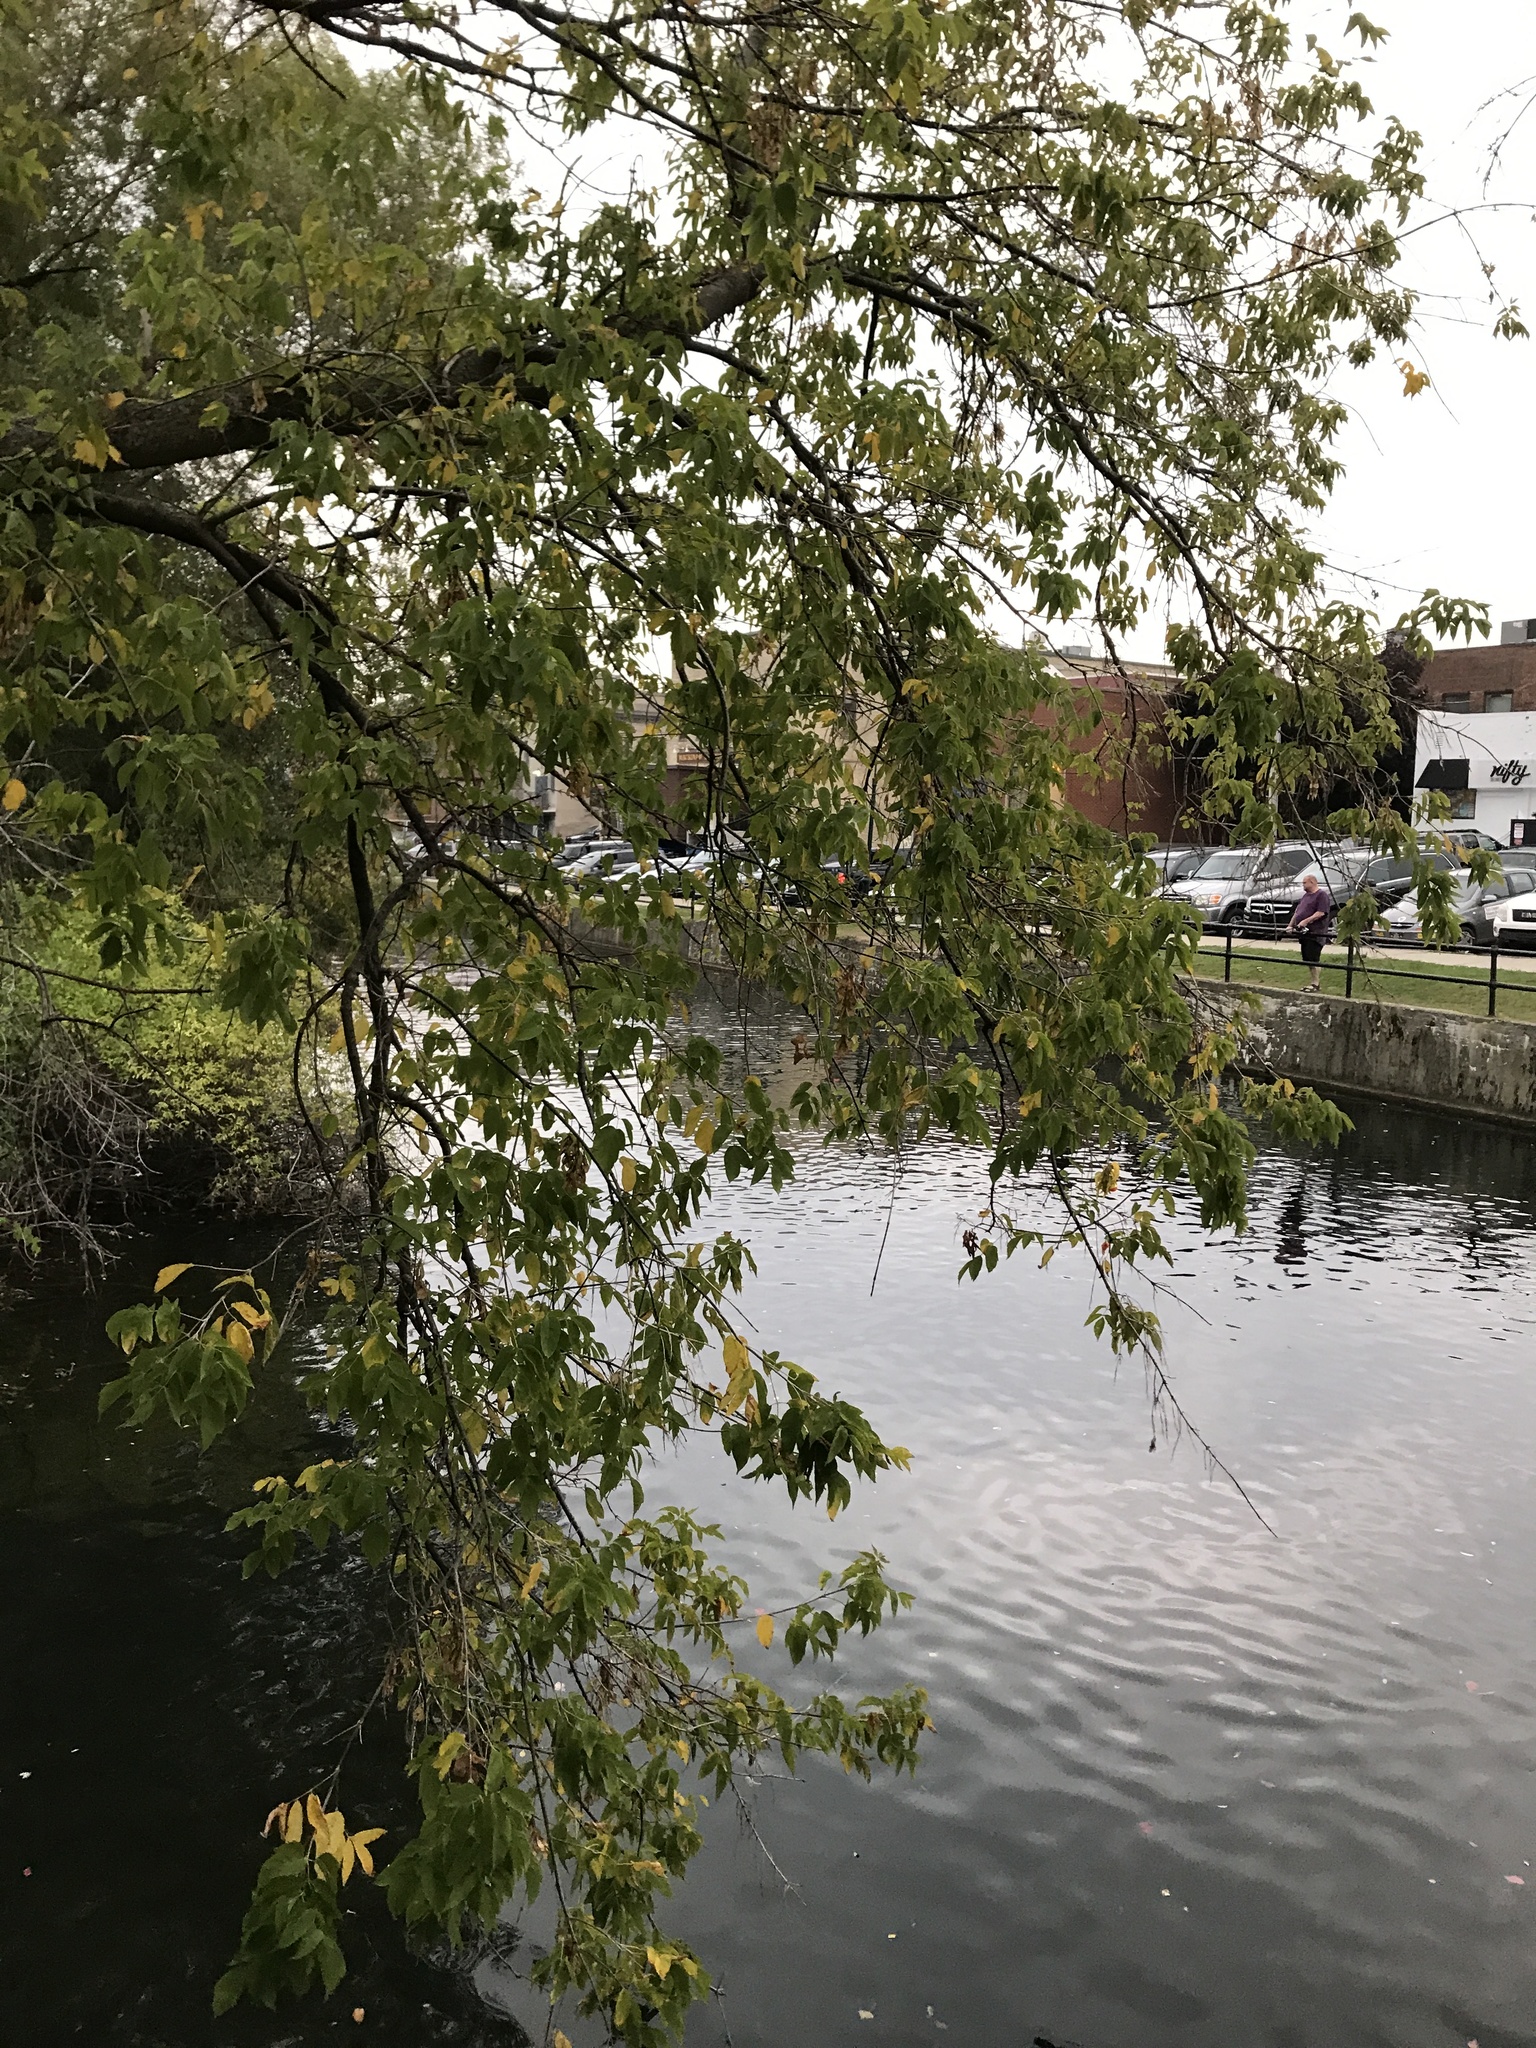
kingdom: Plantae
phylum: Tracheophyta
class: Magnoliopsida
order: Sapindales
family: Sapindaceae
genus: Acer
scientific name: Acer negundo
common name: Ashleaf maple
